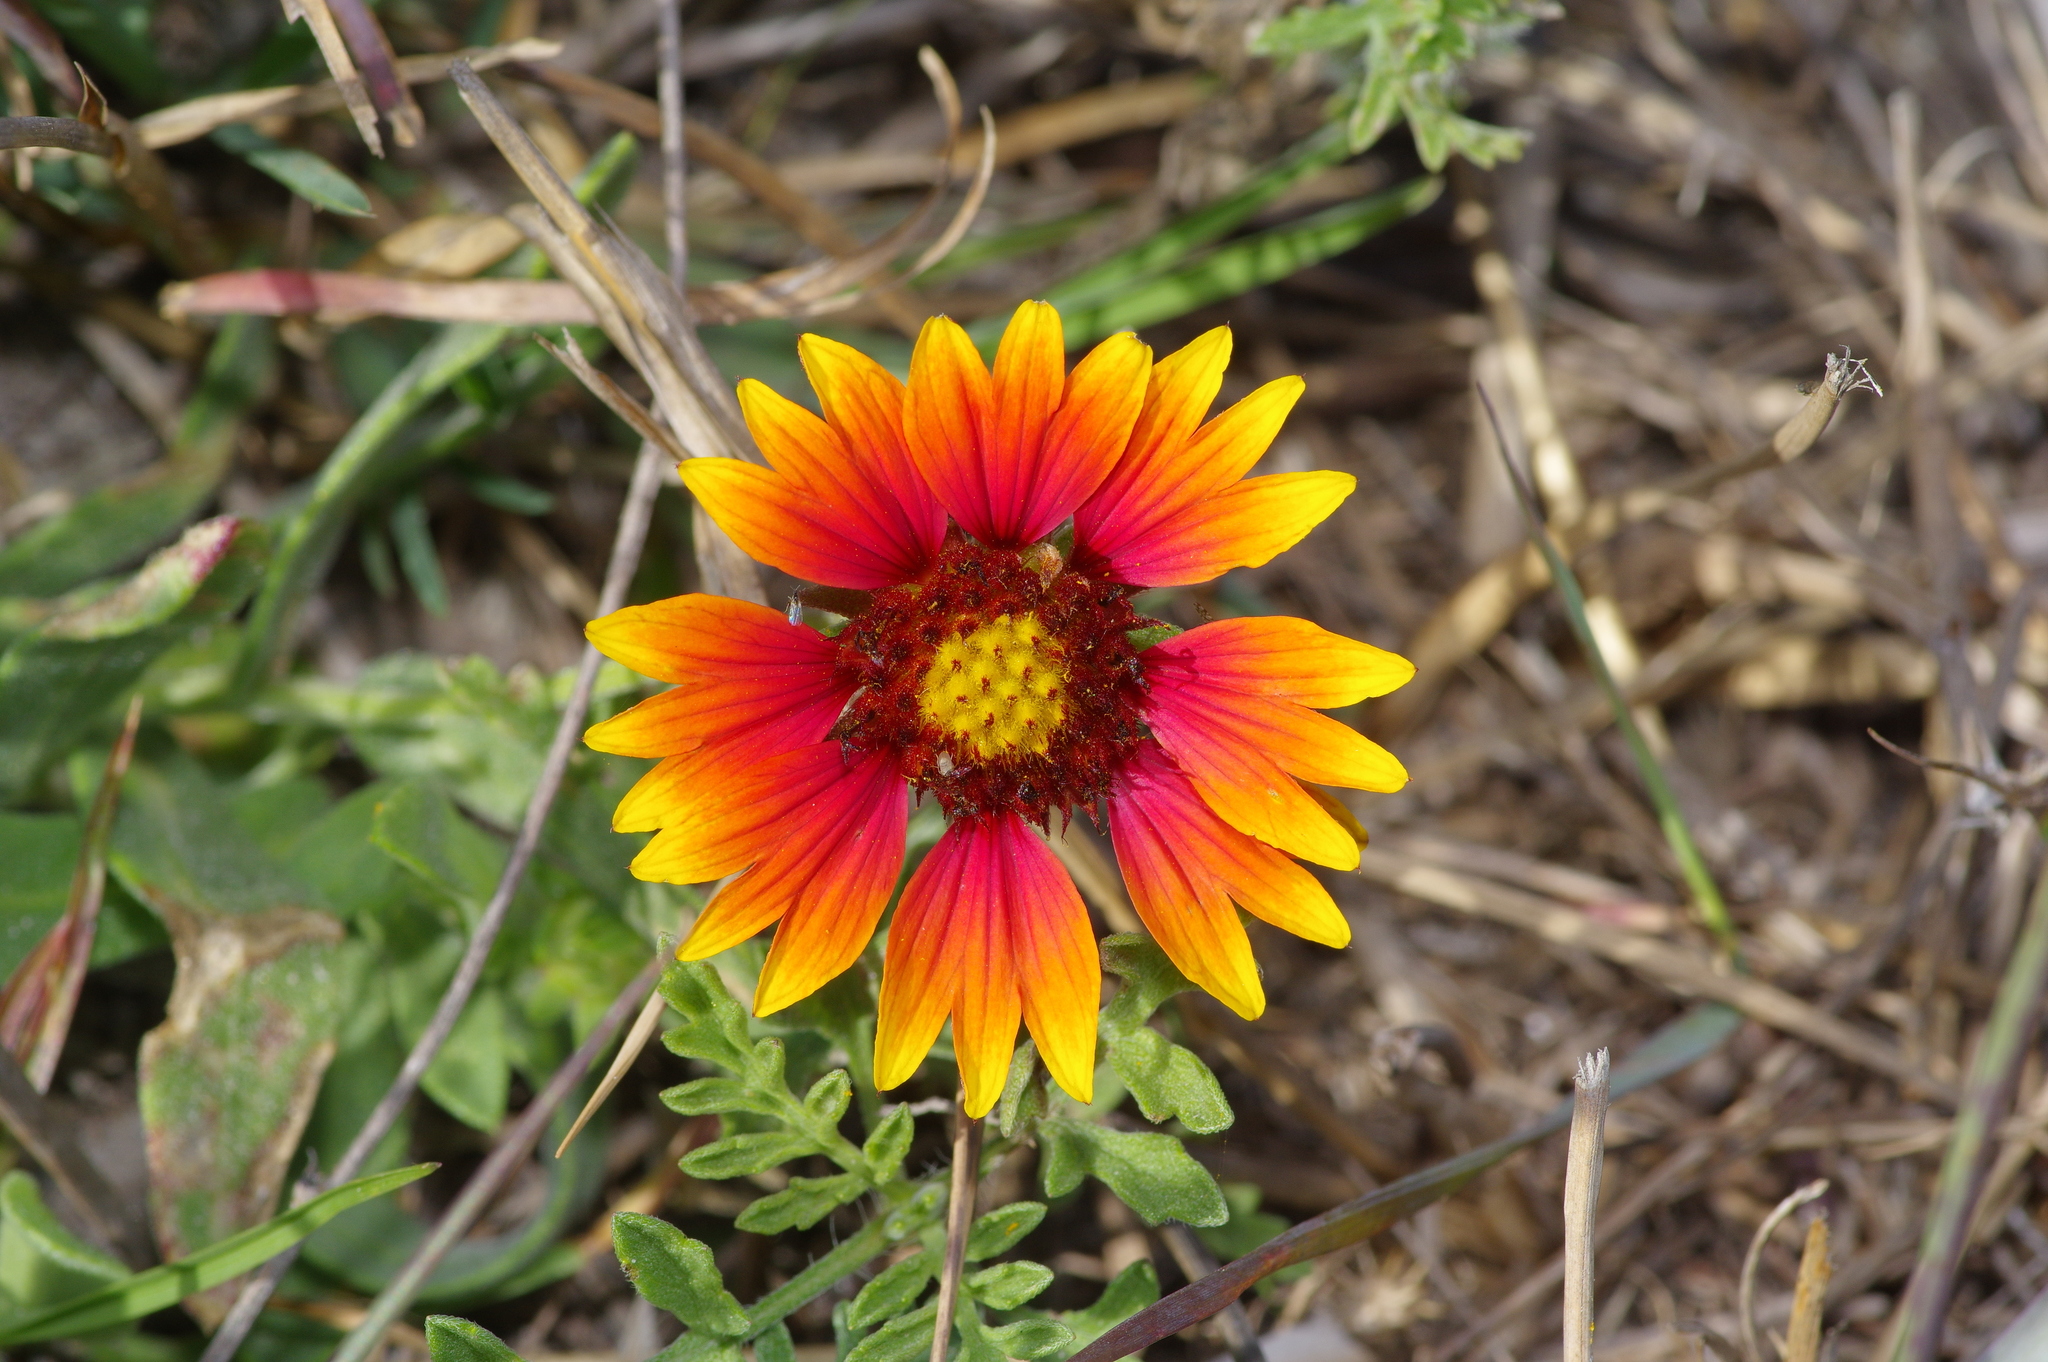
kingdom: Plantae
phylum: Tracheophyta
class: Magnoliopsida
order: Asterales
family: Asteraceae
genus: Gaillardia
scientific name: Gaillardia pulchella
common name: Firewheel
